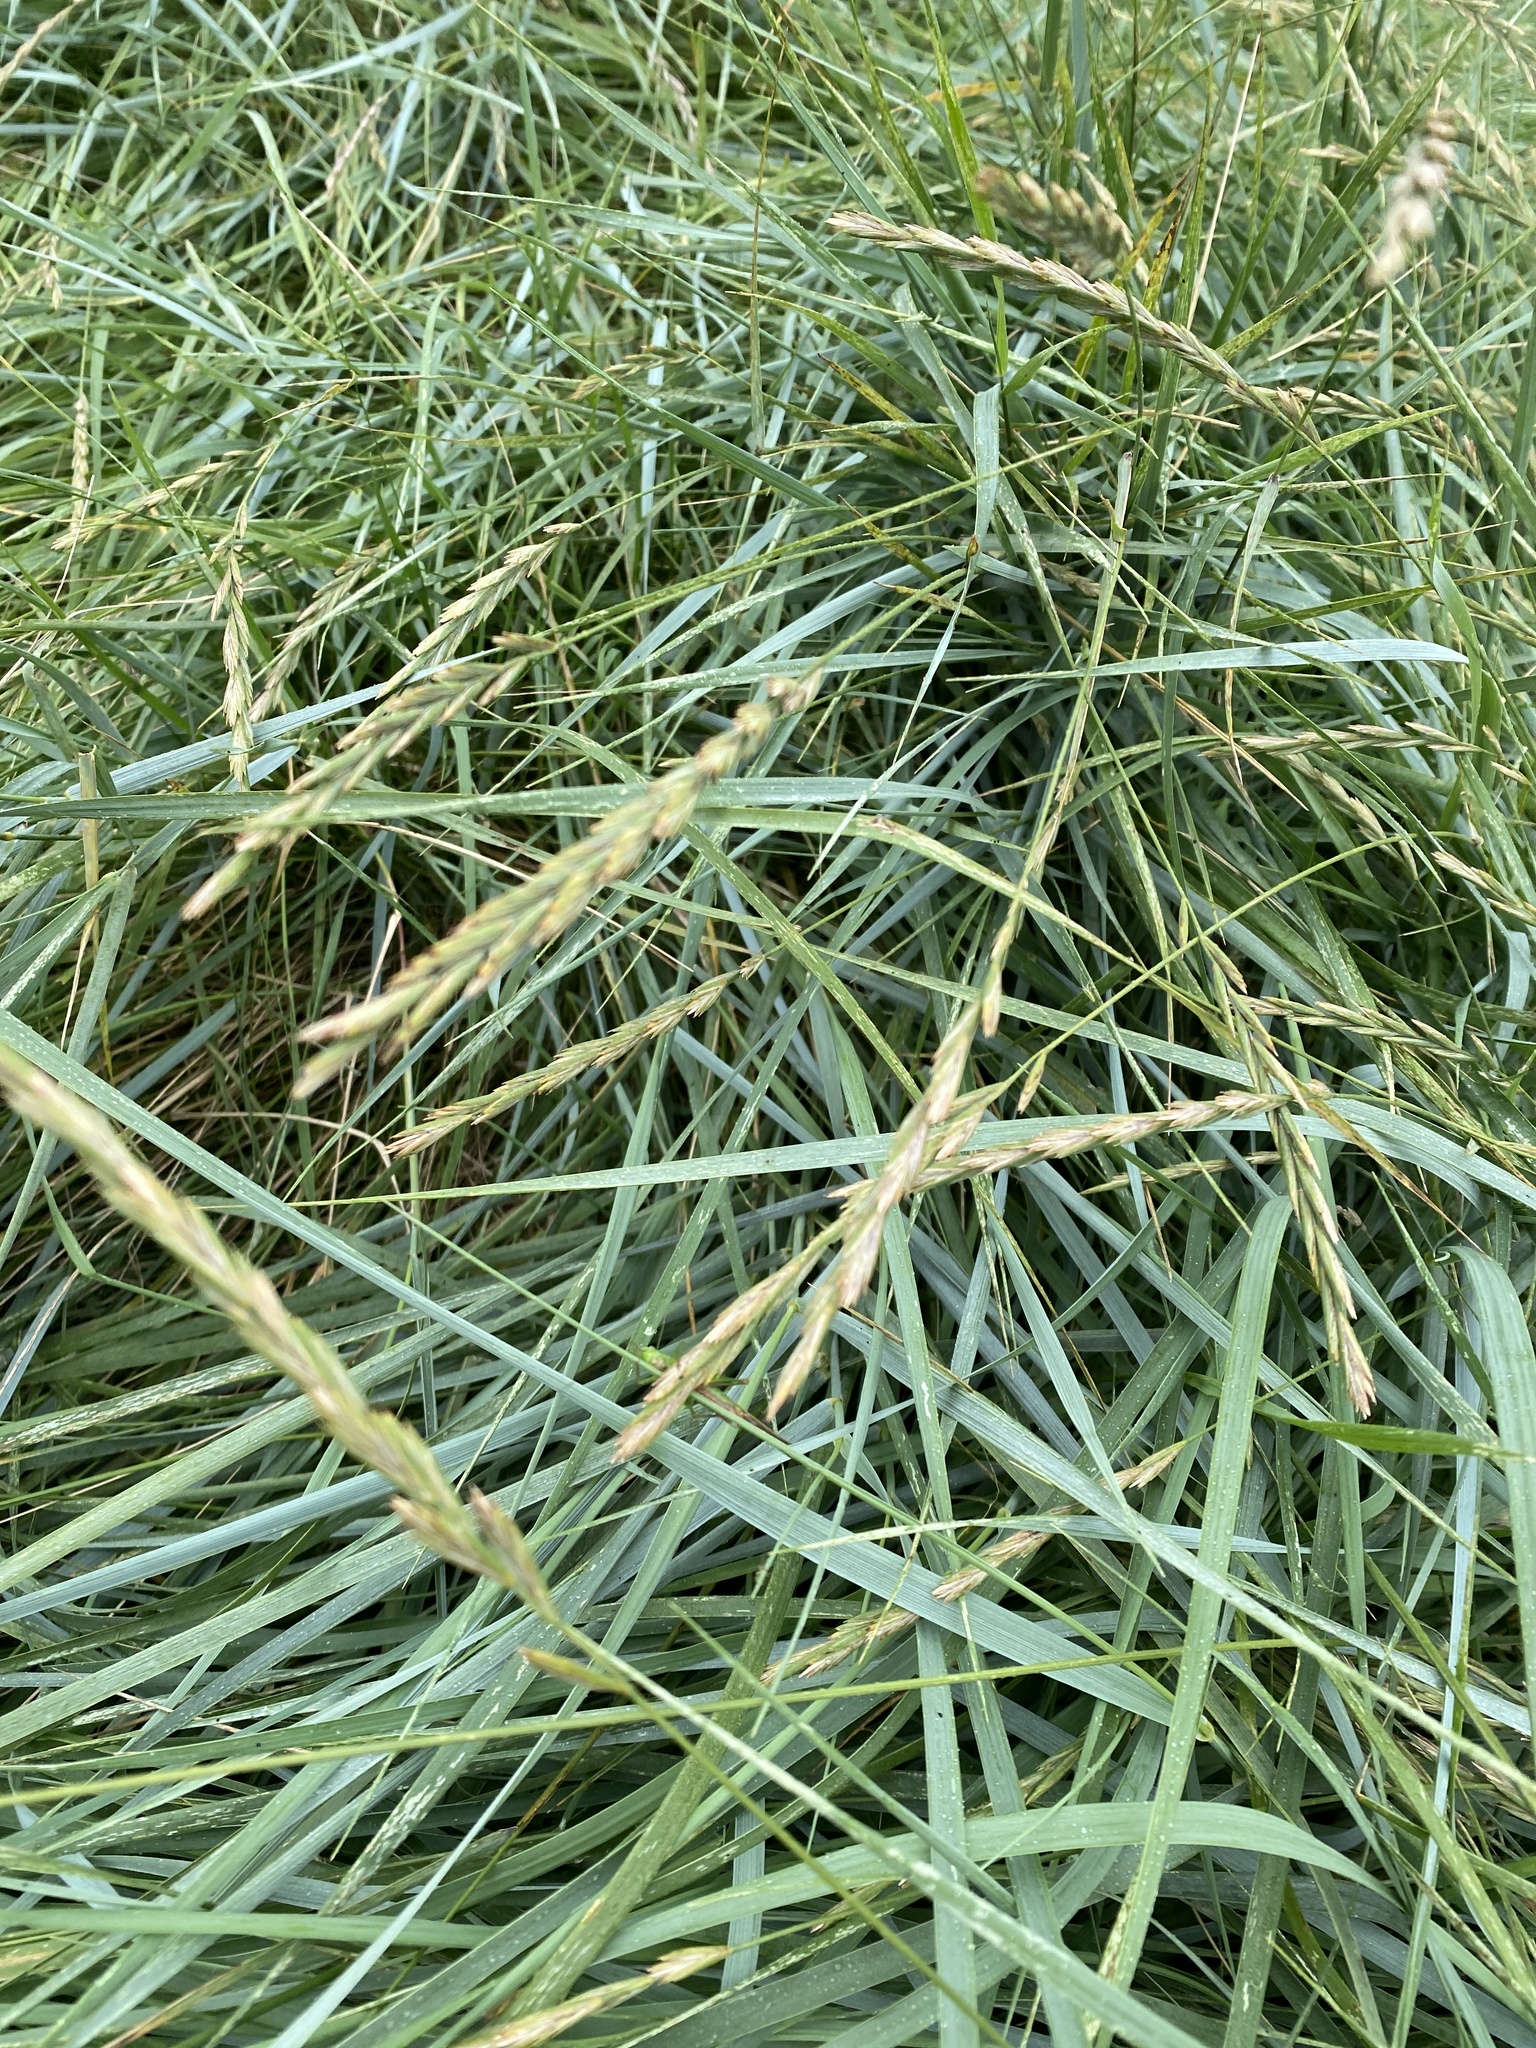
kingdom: Plantae
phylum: Tracheophyta
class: Liliopsida
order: Poales
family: Poaceae
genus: Elymus
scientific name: Elymus repens
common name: Quackgrass
